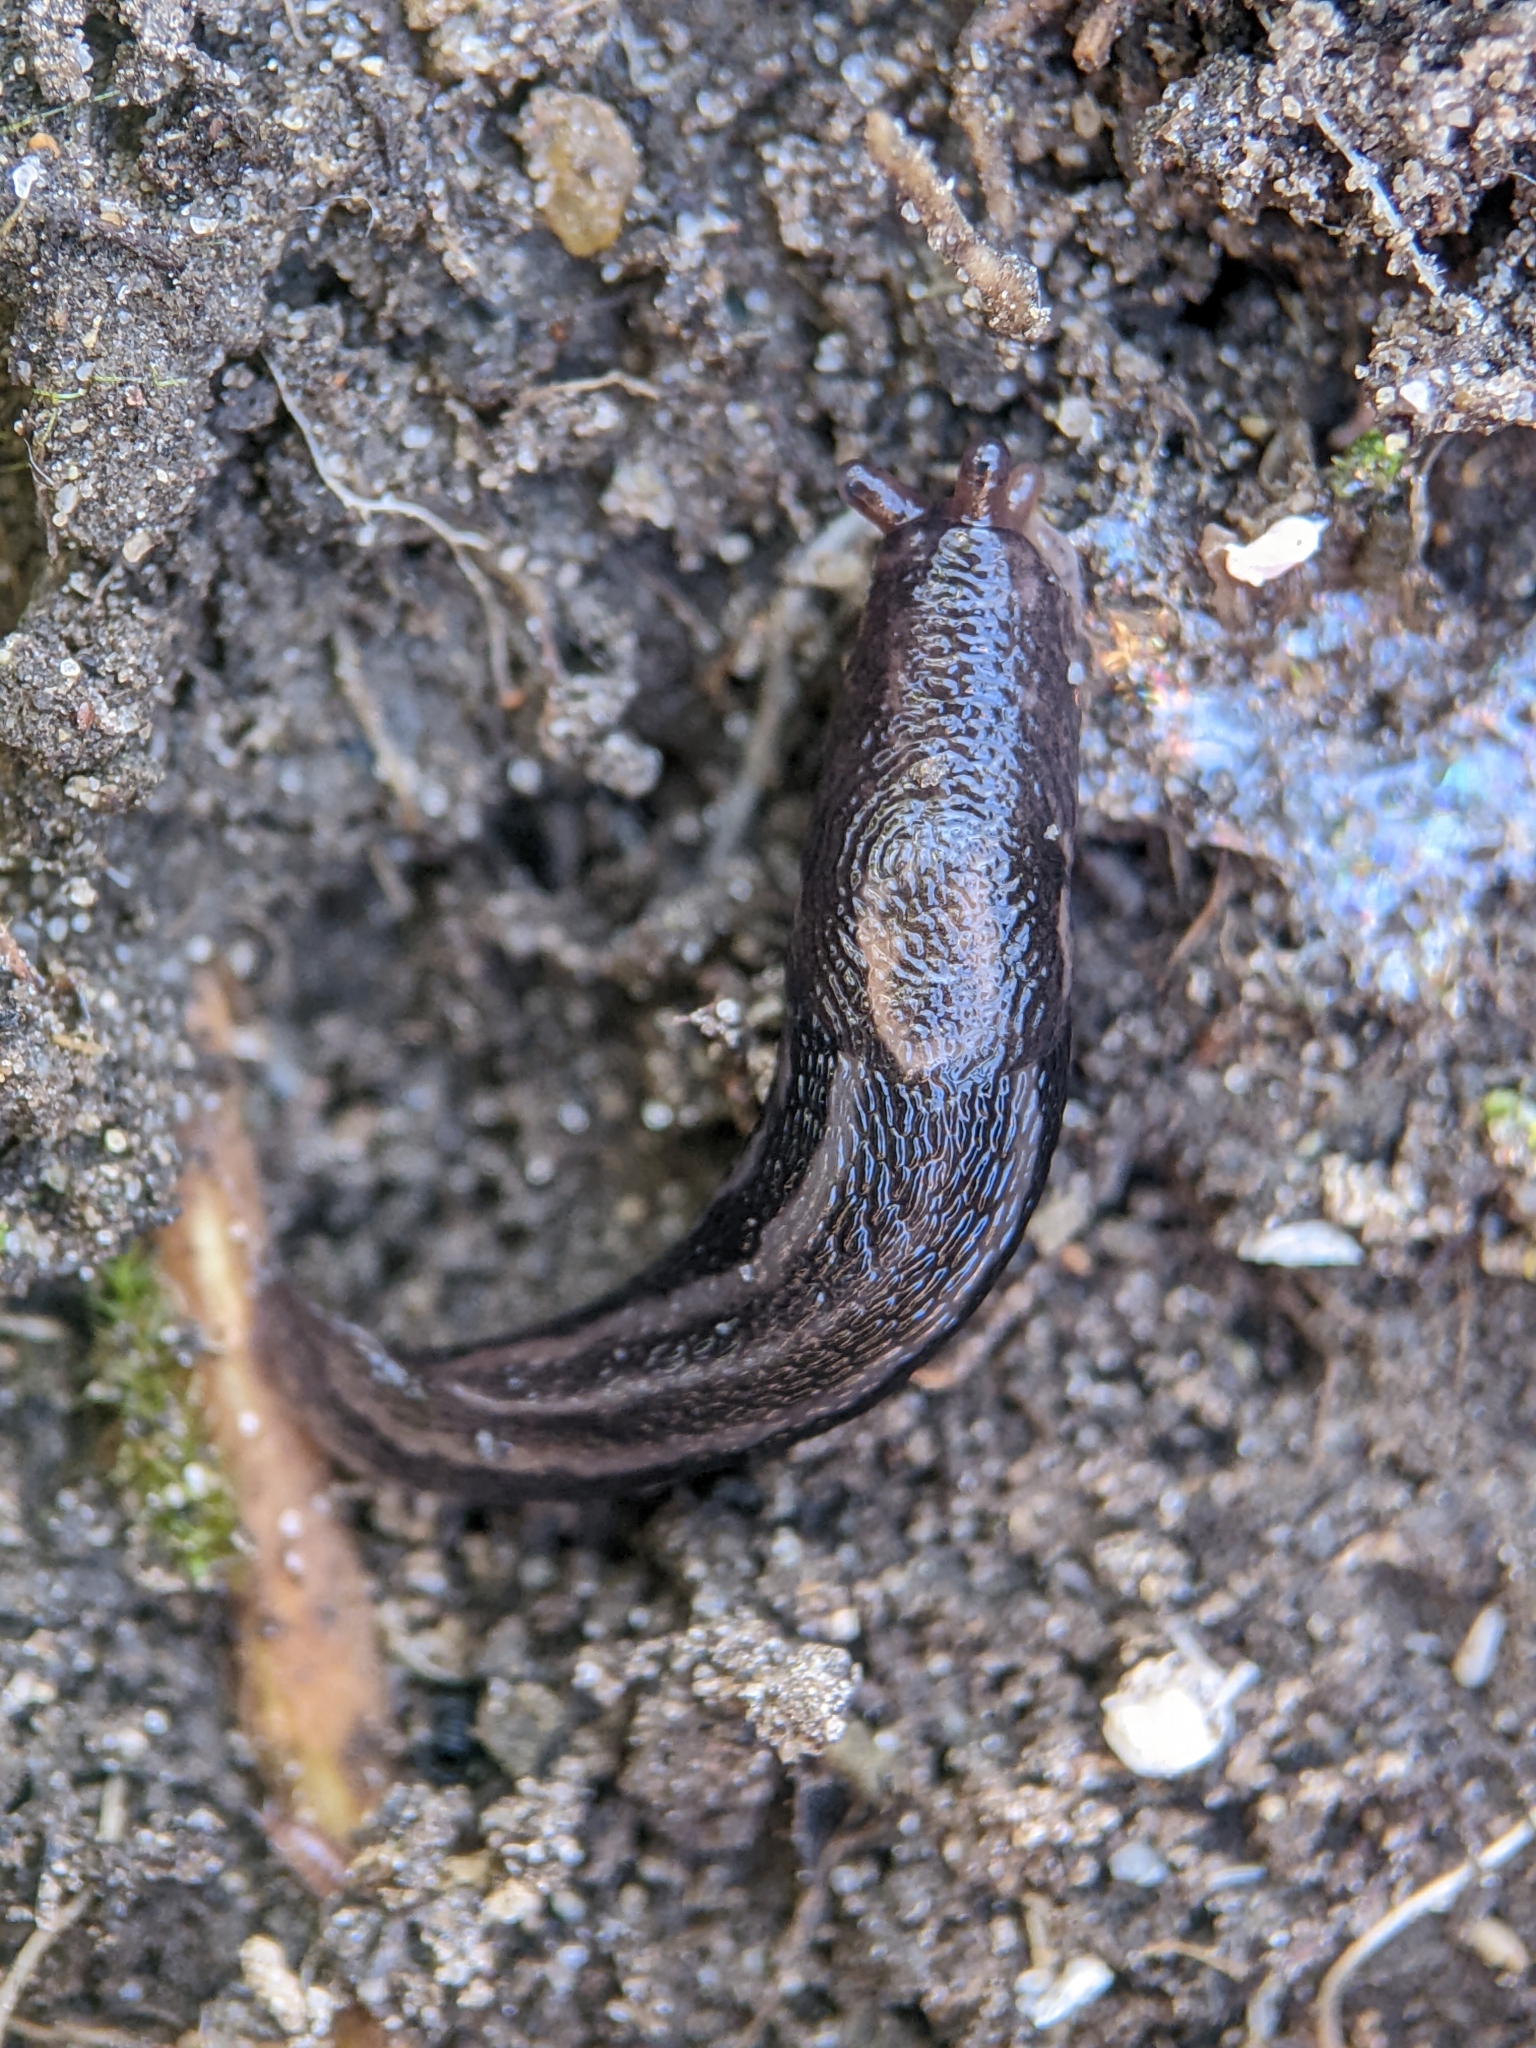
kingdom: Animalia
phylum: Mollusca
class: Gastropoda
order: Stylommatophora
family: Limacidae
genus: Limax
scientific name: Limax maximus
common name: Great grey slug
